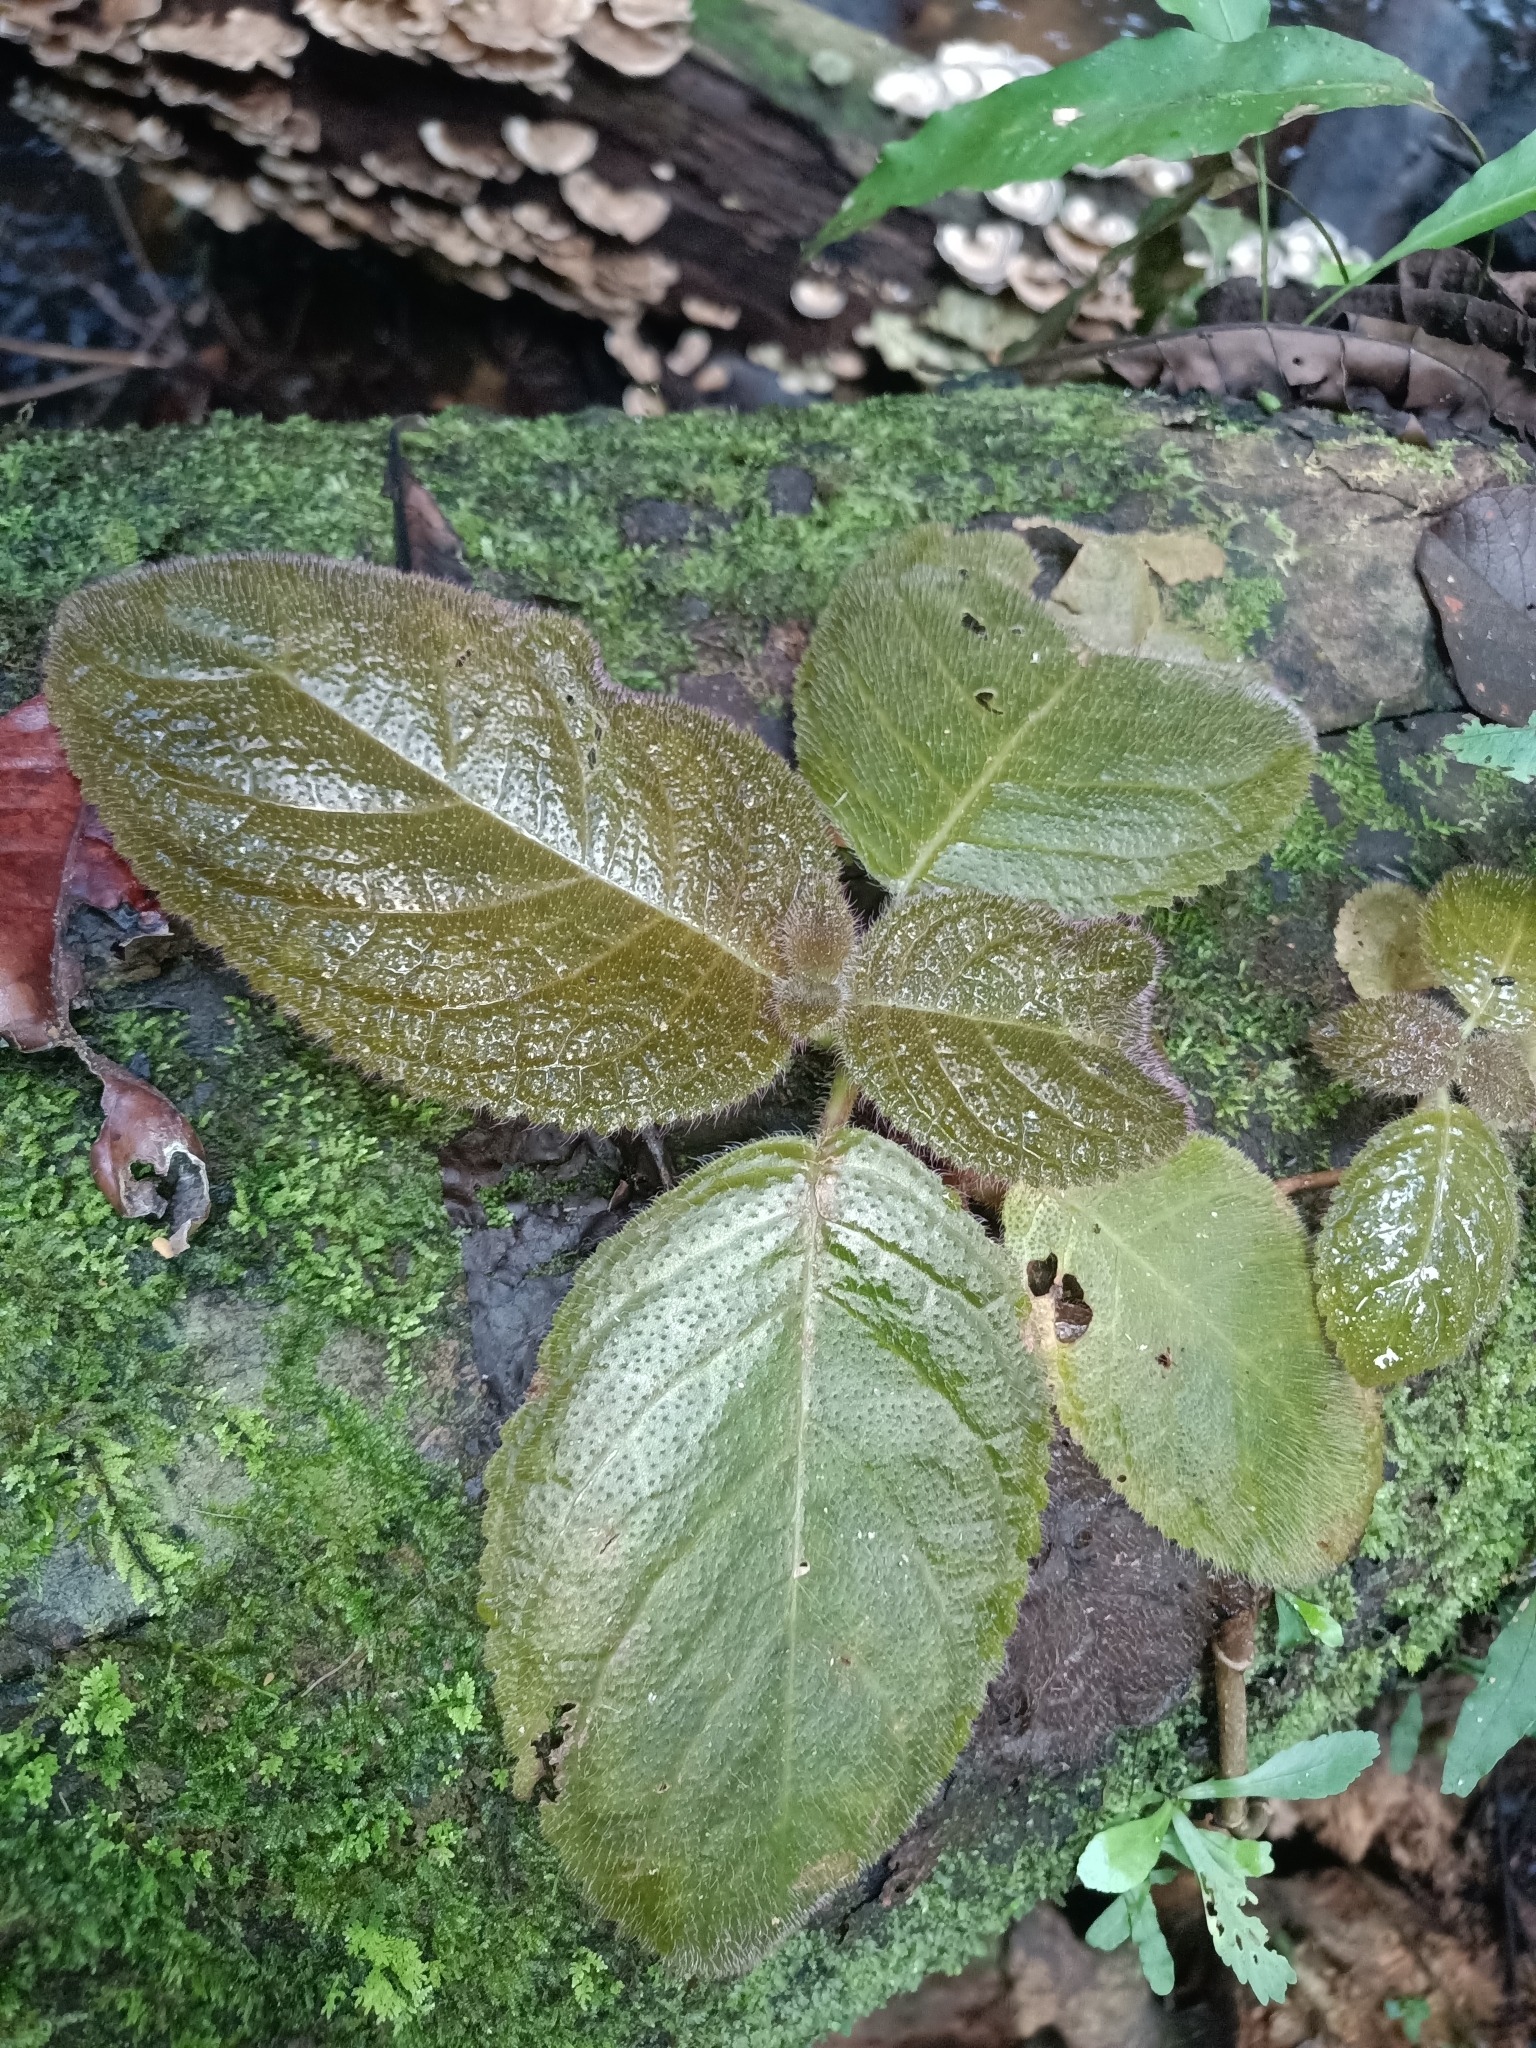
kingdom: Plantae
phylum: Tracheophyta
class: Magnoliopsida
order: Lamiales
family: Gesneriaceae
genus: Christopheria
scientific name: Christopheria xantha
